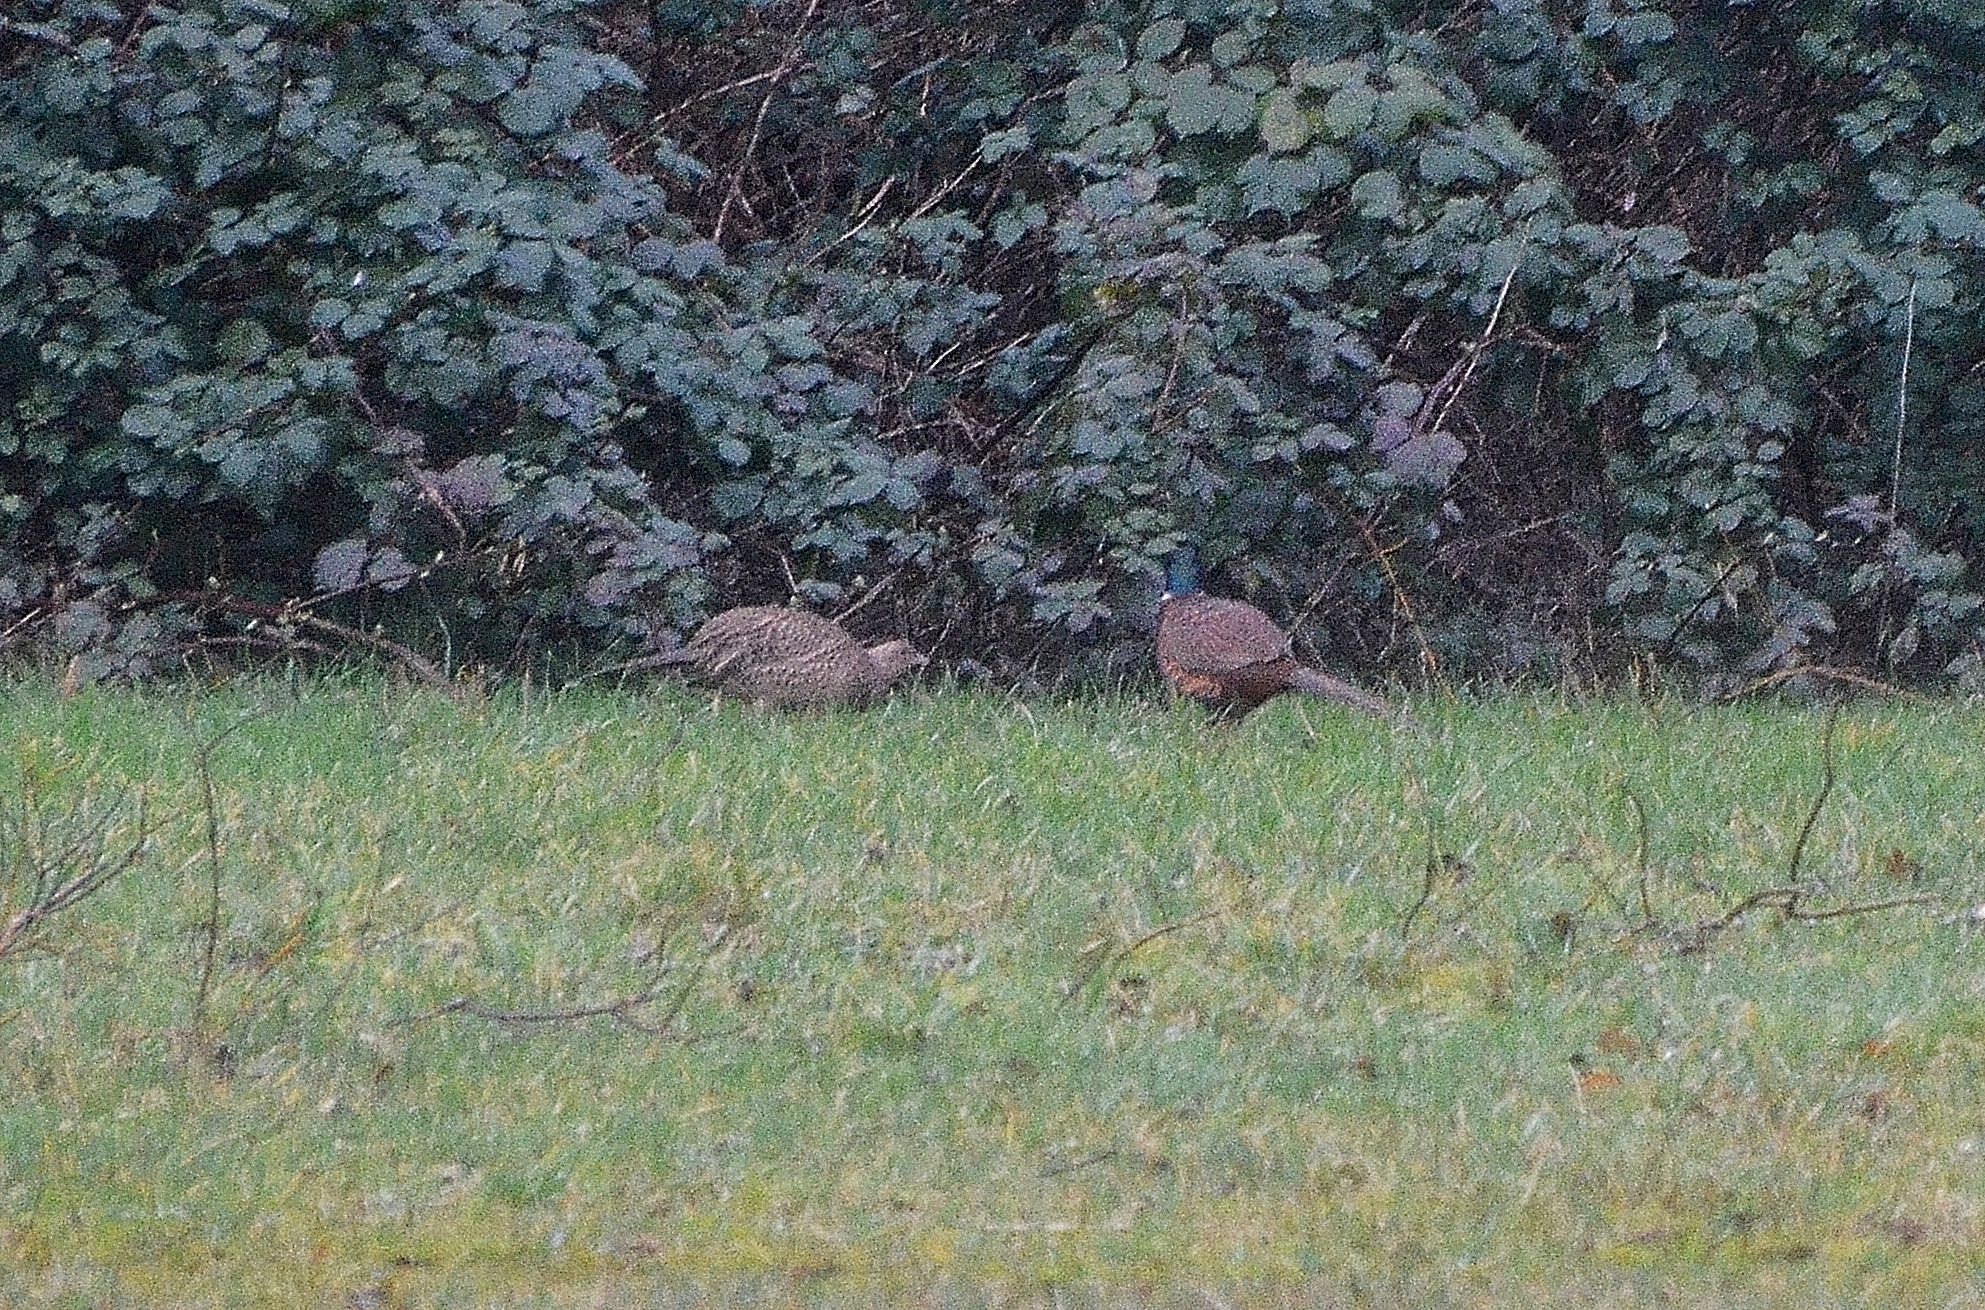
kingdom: Animalia
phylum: Chordata
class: Aves
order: Galliformes
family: Phasianidae
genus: Phasianus
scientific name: Phasianus colchicus
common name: Common pheasant
